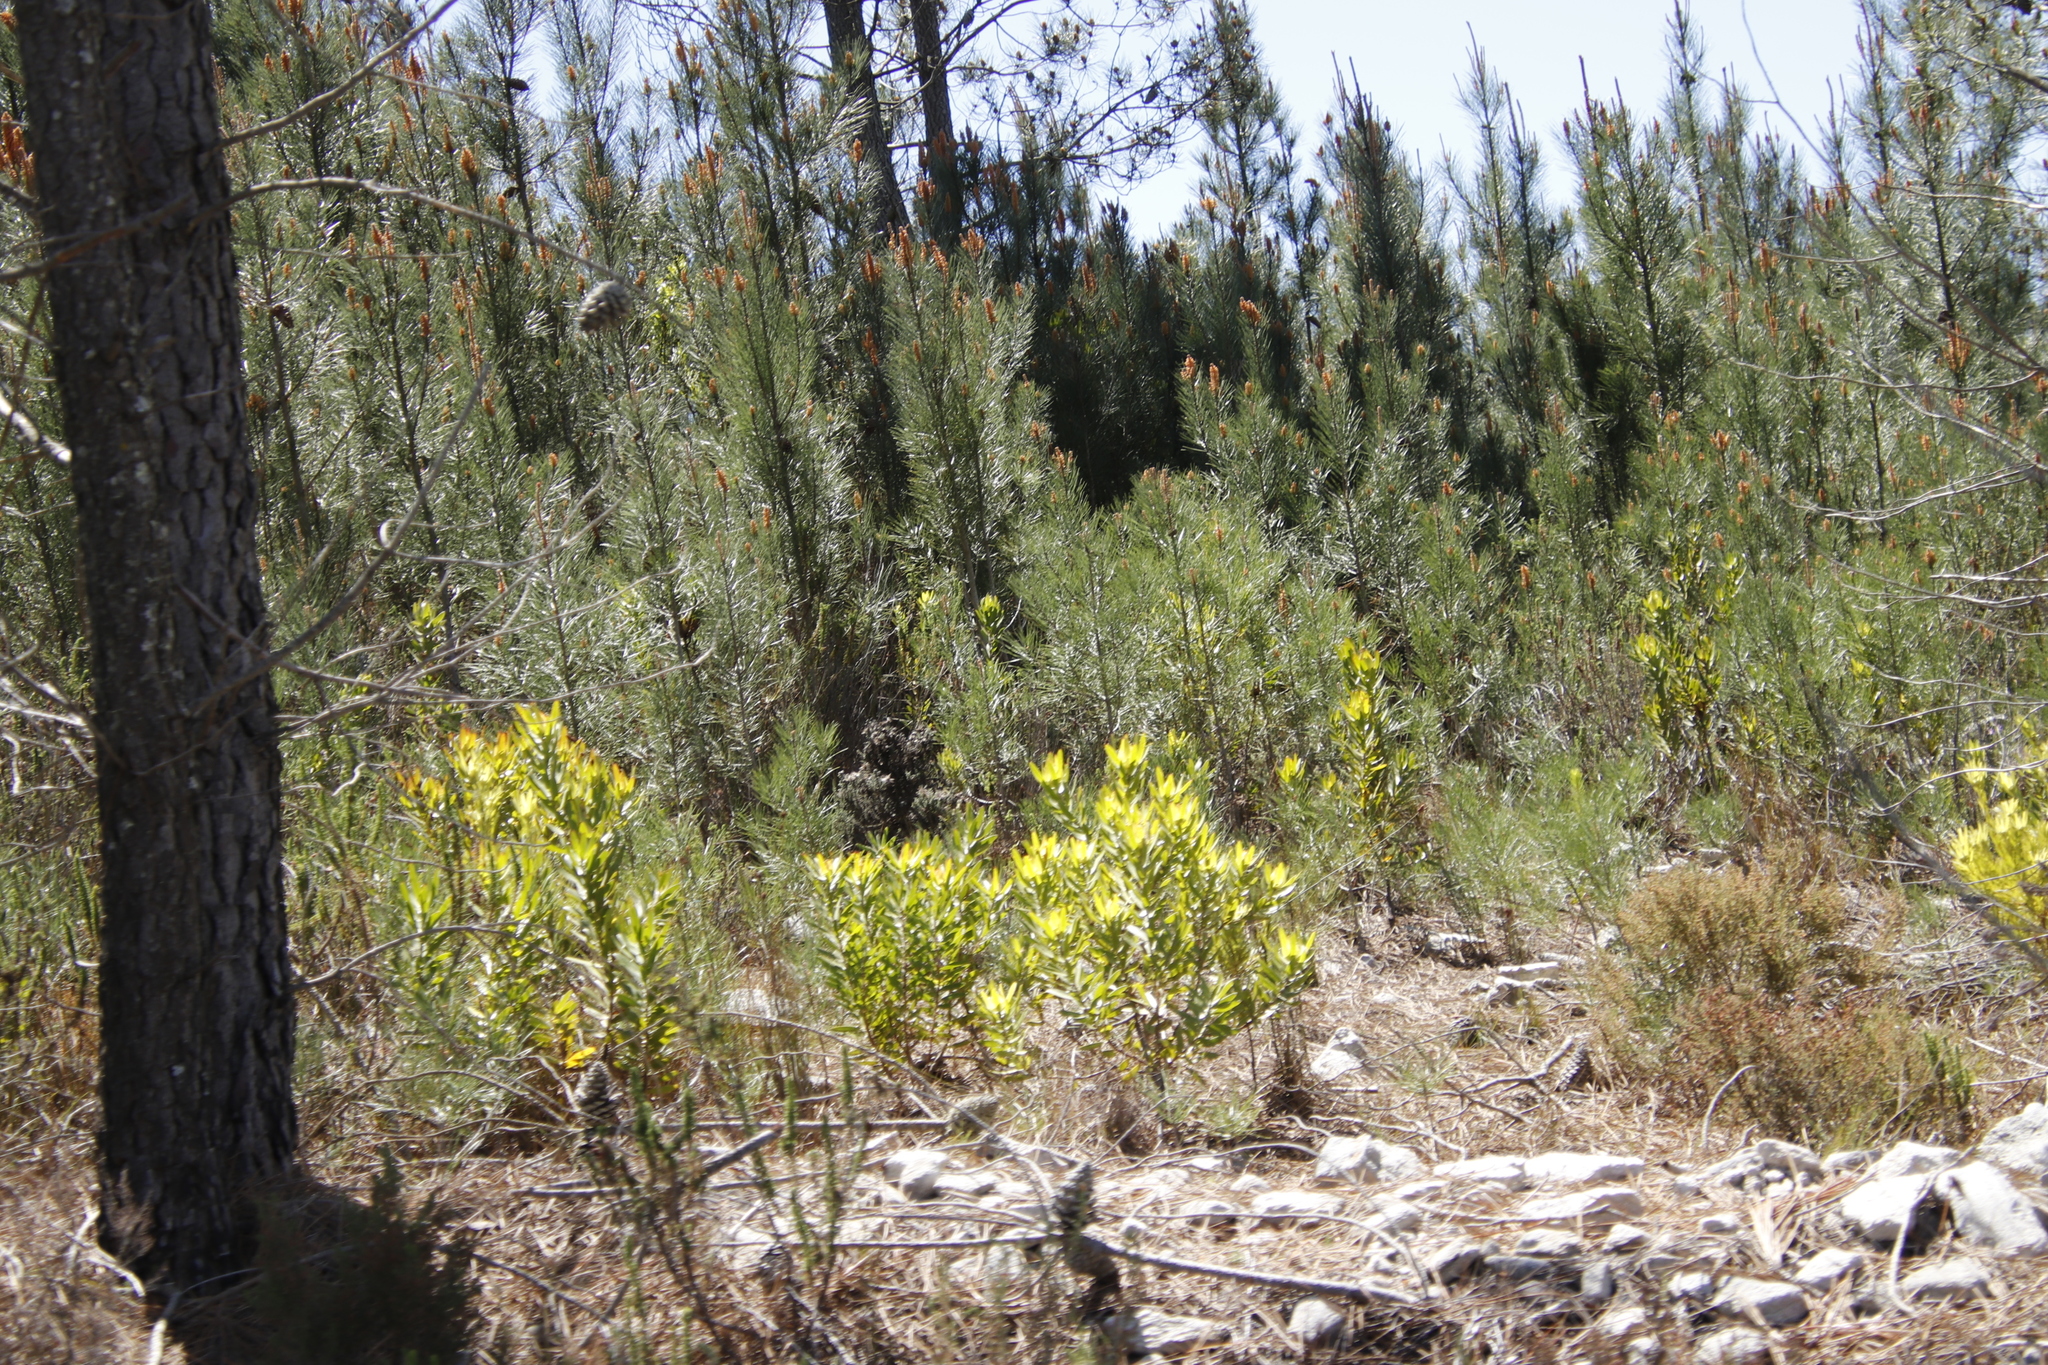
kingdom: Plantae
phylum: Tracheophyta
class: Magnoliopsida
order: Proteales
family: Proteaceae
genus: Leucadendron
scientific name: Leucadendron laureolum
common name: Golden sunshinebush
